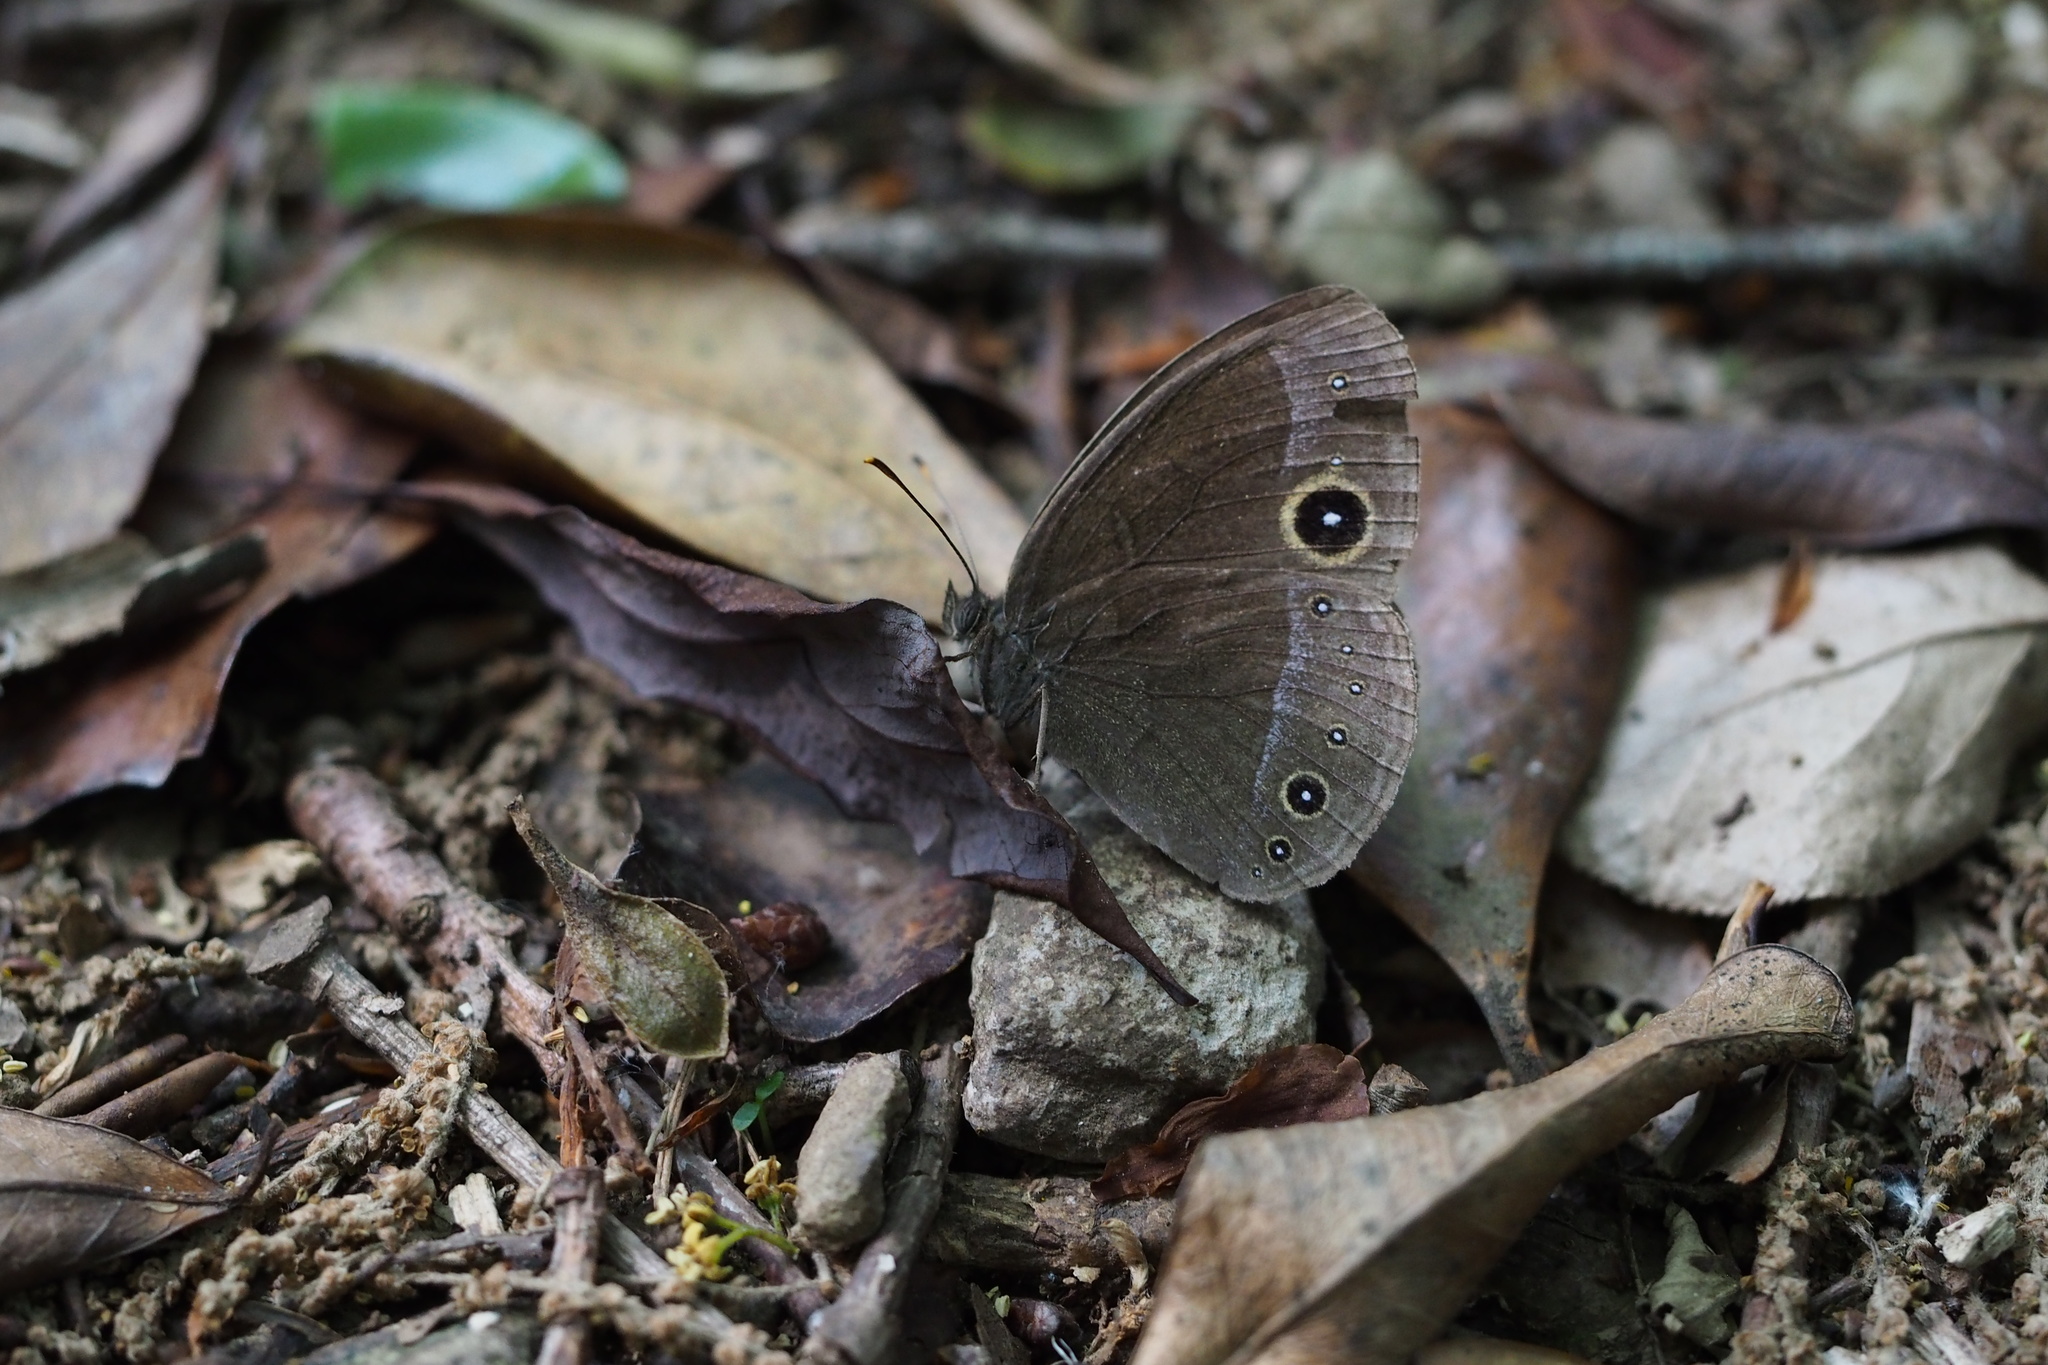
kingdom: Animalia
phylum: Arthropoda
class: Insecta
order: Lepidoptera
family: Nymphalidae
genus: Mycalesis
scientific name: Mycalesis francisca
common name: Lilacine bushbrown
